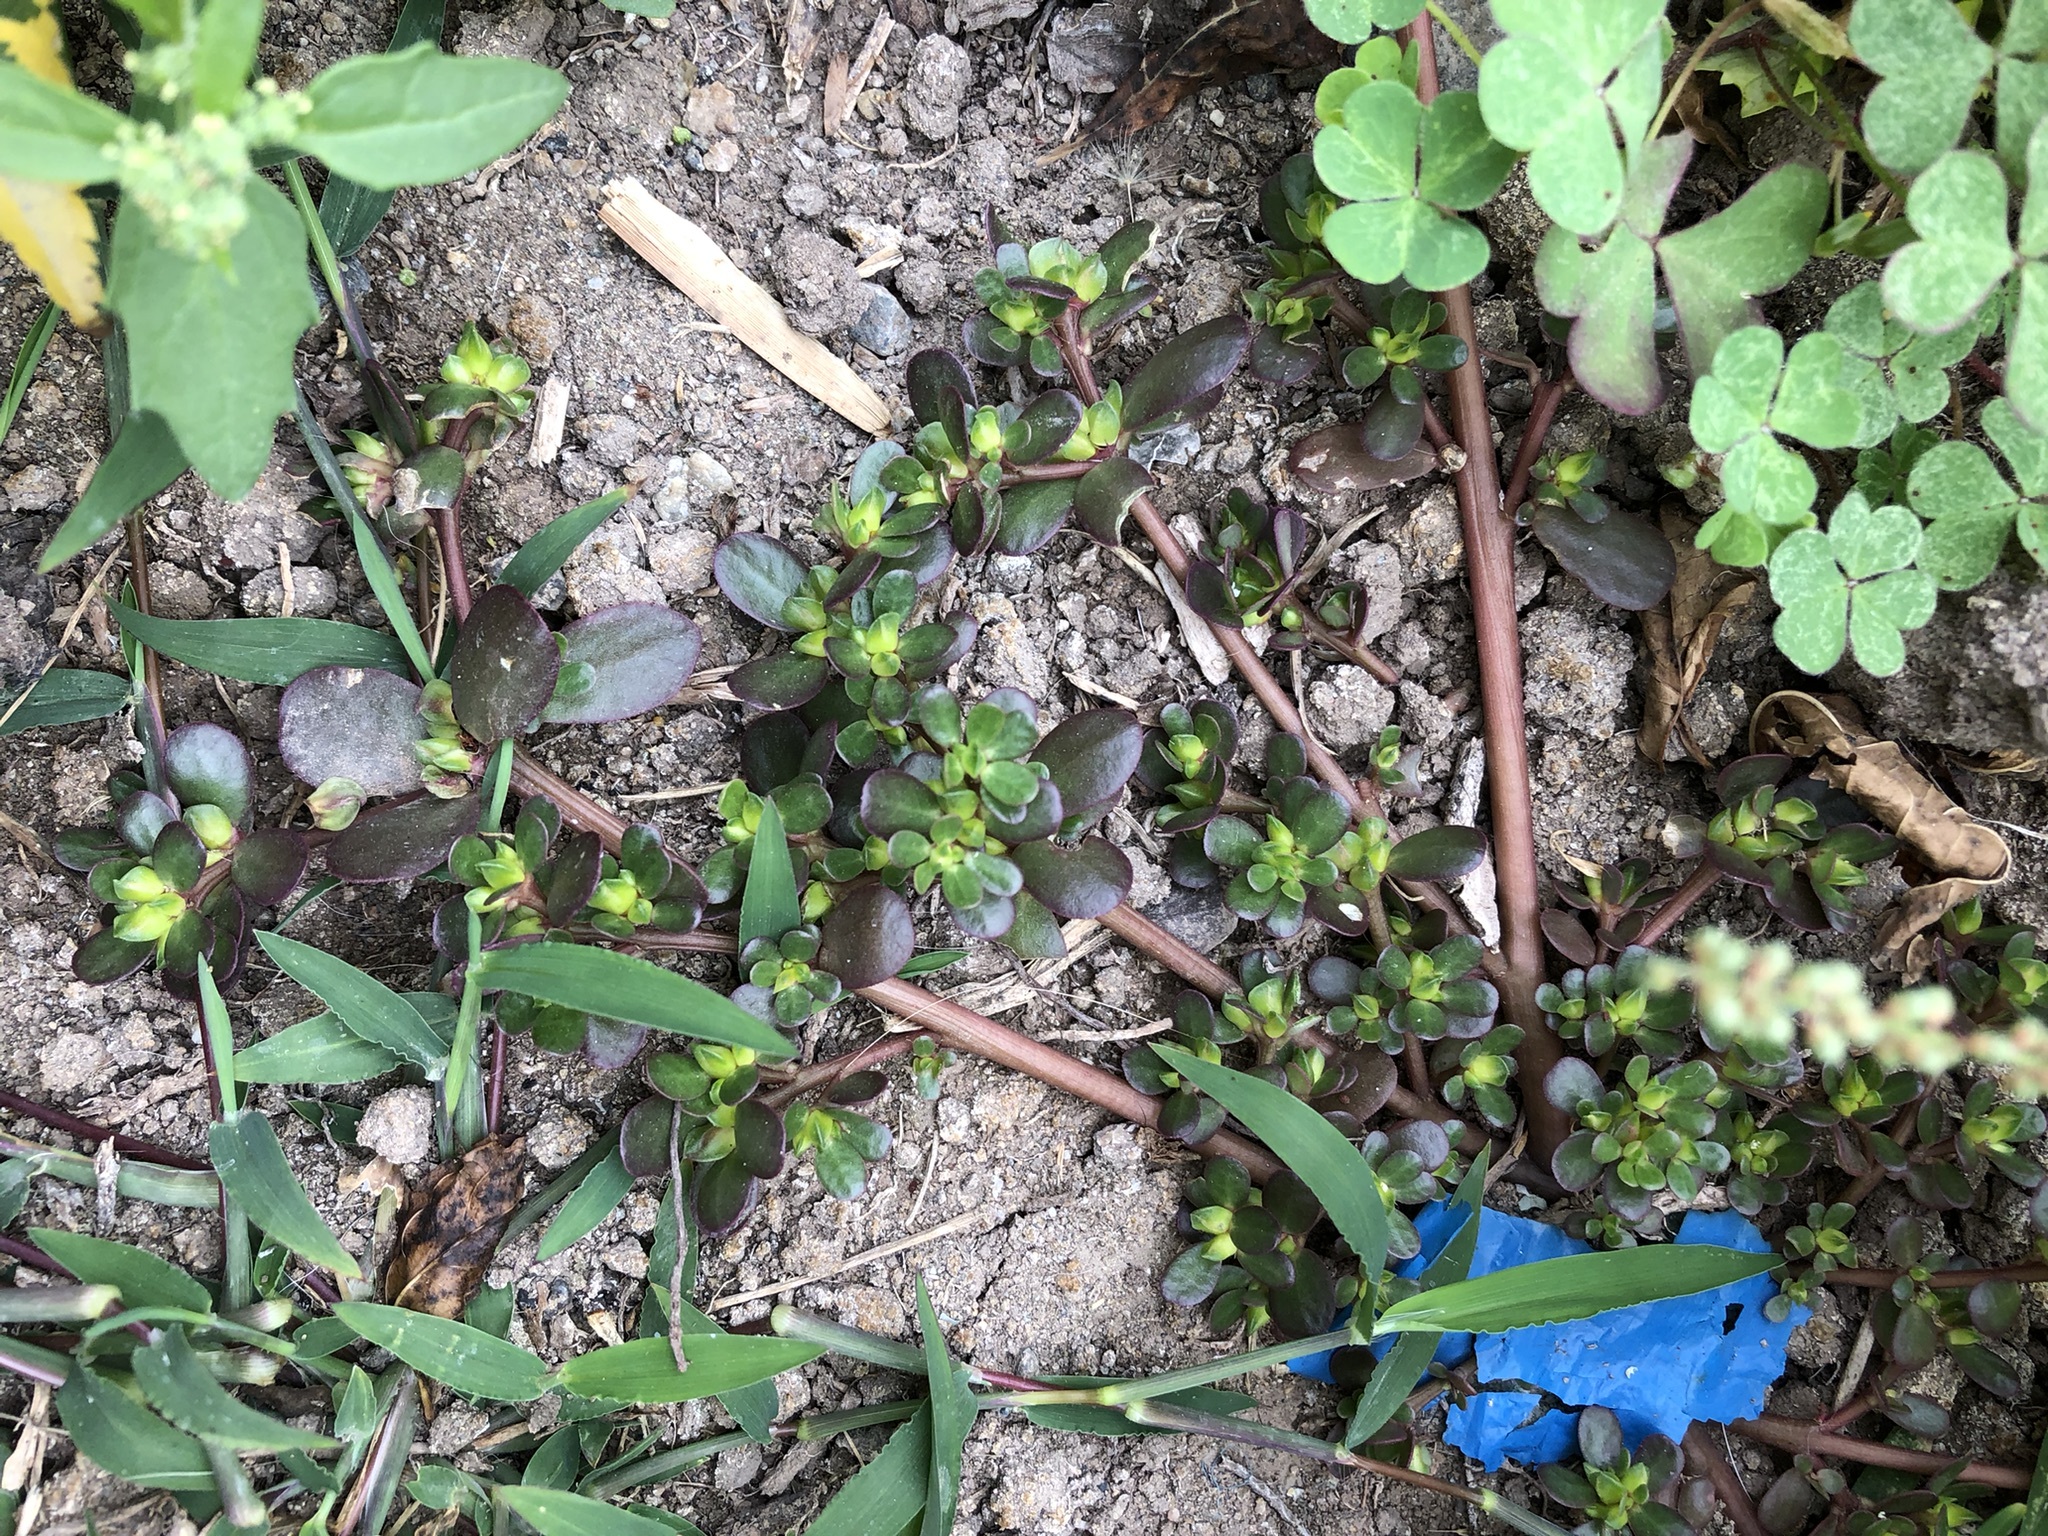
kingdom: Plantae
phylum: Tracheophyta
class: Magnoliopsida
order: Caryophyllales
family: Portulacaceae
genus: Portulaca
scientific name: Portulaca oleracea
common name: Common purslane
